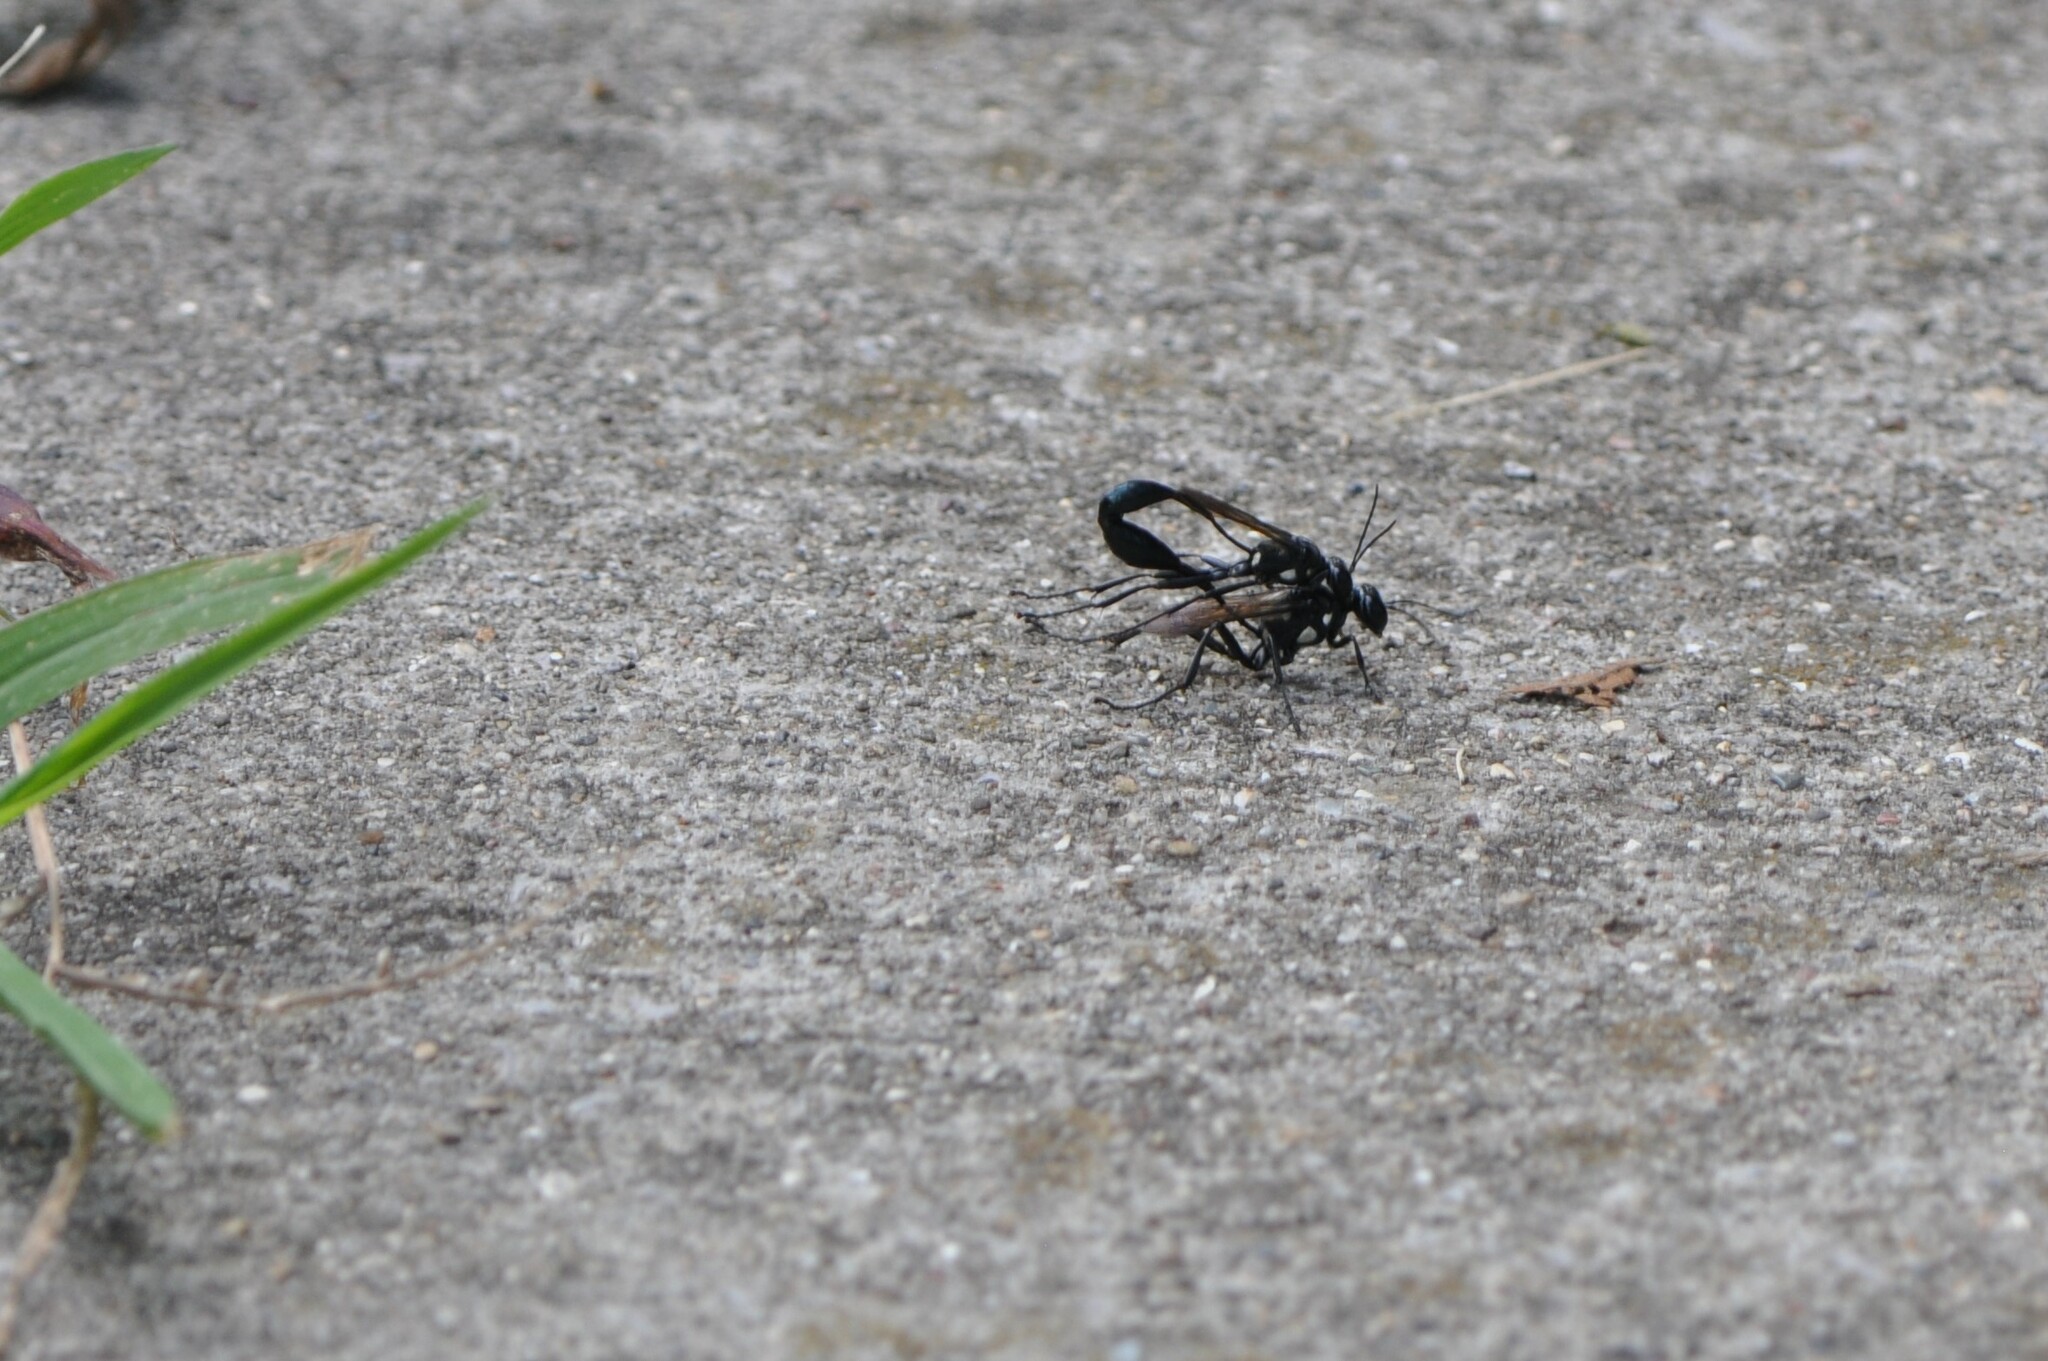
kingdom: Animalia
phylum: Arthropoda
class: Insecta
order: Hymenoptera
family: Sphecidae
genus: Eremnophila
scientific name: Eremnophila aureonotata
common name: Gold-marked thread-waisted wasp
